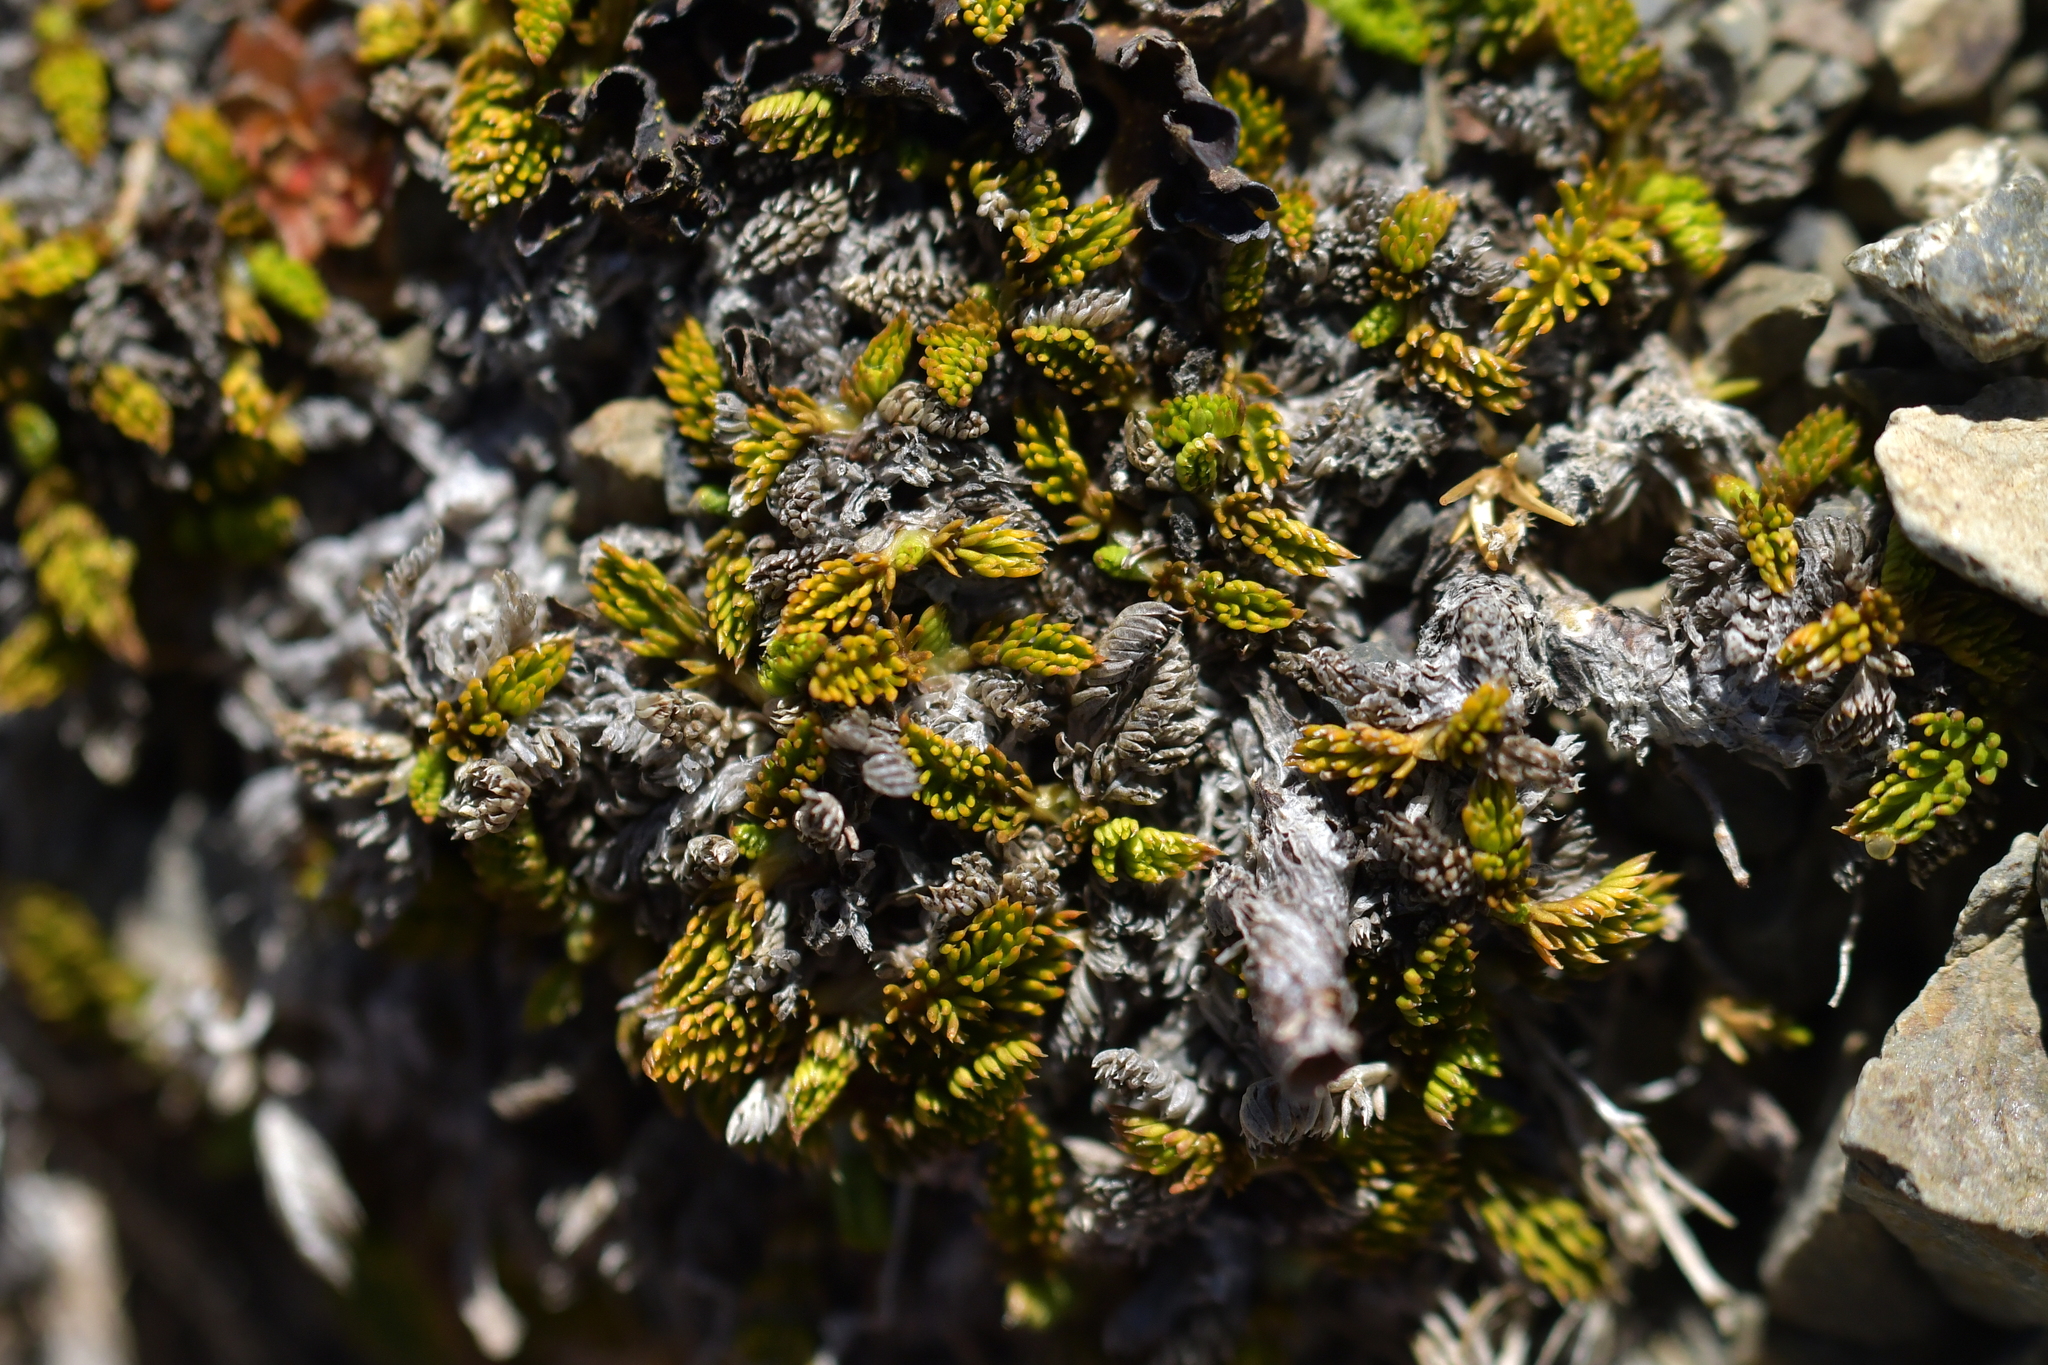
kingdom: Plantae
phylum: Tracheophyta
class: Magnoliopsida
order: Apiales
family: Apiaceae
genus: Anisotome
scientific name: Anisotome imbricata
